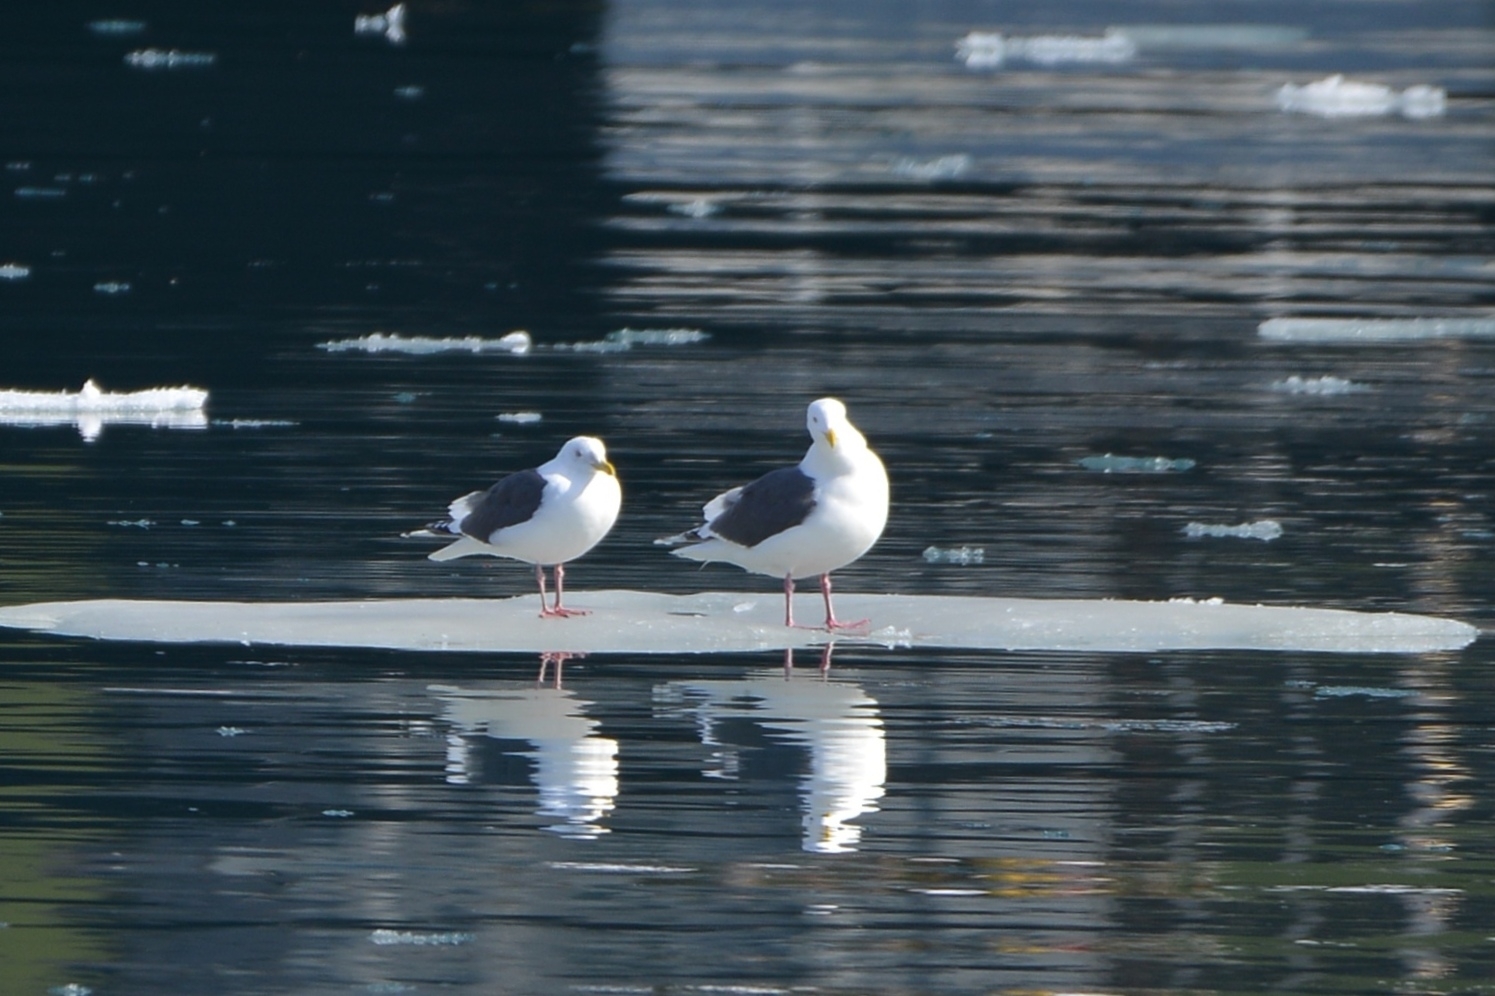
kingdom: Animalia
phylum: Chordata
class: Aves
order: Charadriiformes
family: Laridae
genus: Larus
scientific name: Larus schistisagus
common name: Slaty-backed gull
